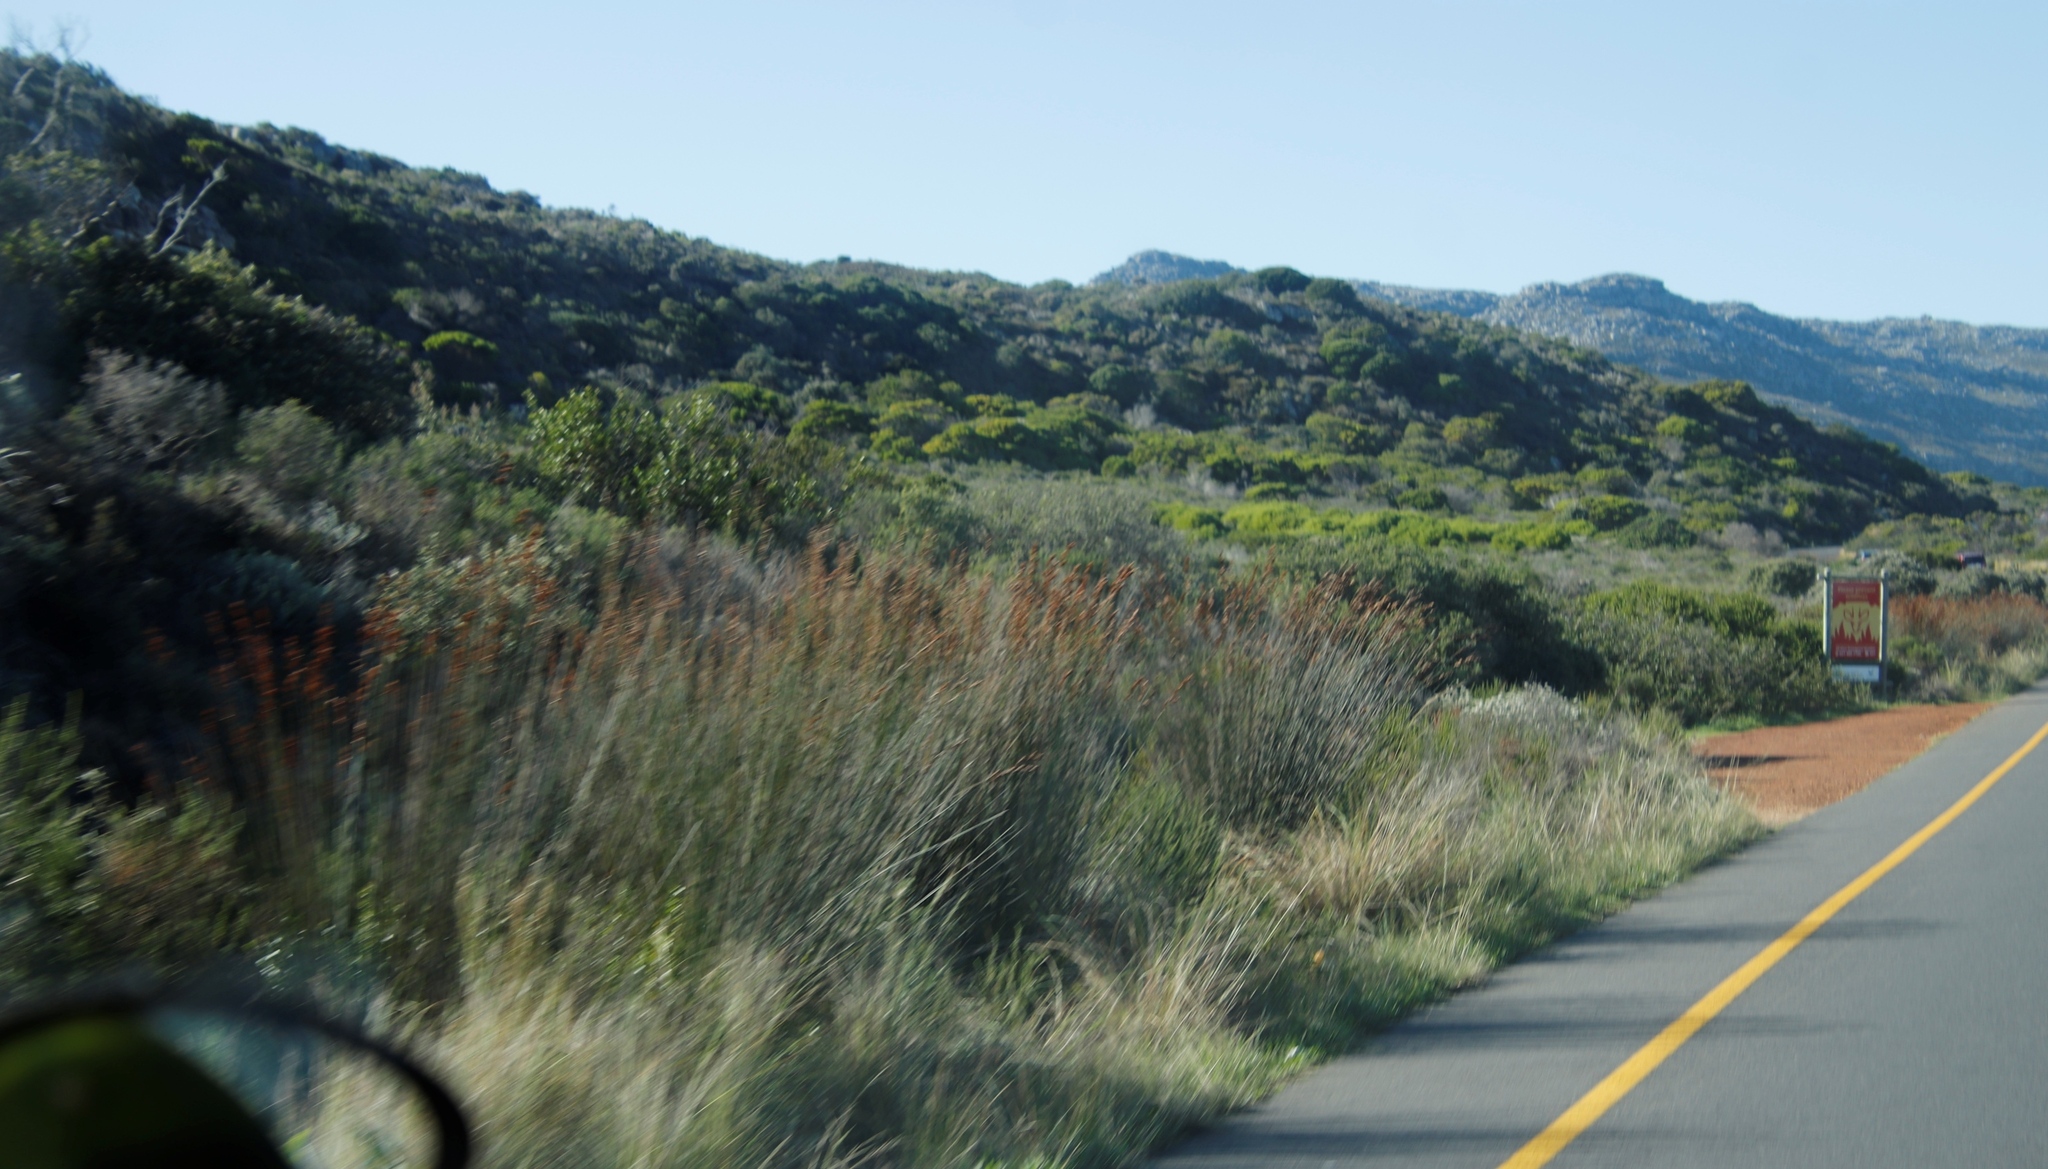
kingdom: Plantae
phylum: Tracheophyta
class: Liliopsida
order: Poales
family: Restionaceae
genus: Thamnochortus
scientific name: Thamnochortus insignis
